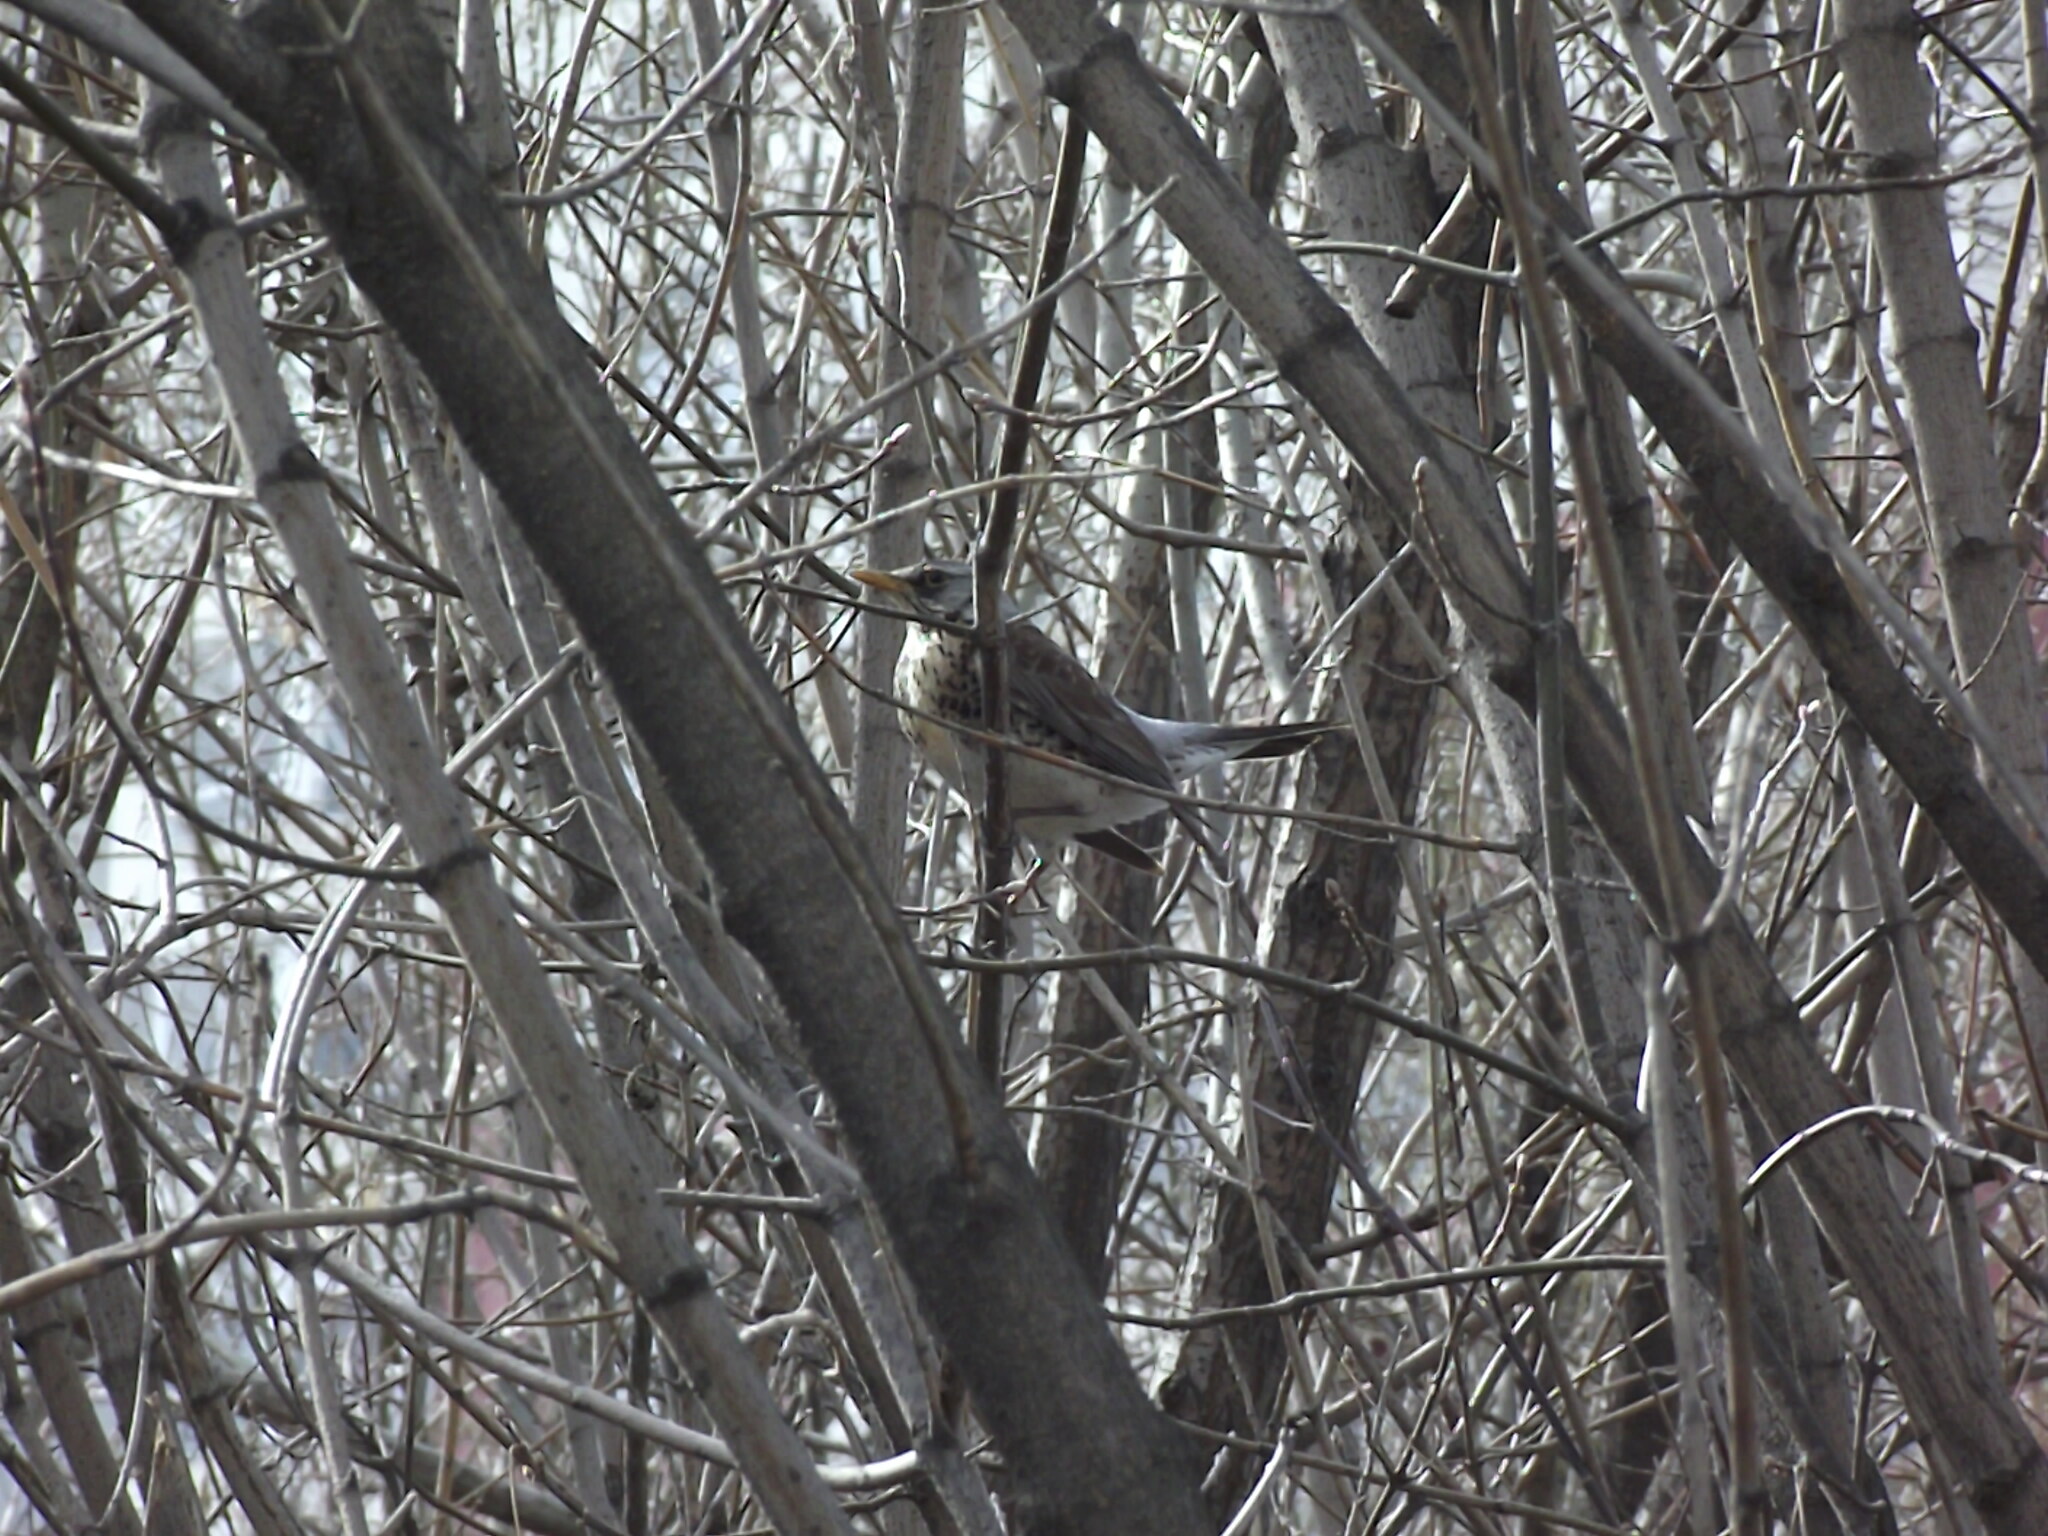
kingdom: Animalia
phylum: Chordata
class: Aves
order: Passeriformes
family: Turdidae
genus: Turdus
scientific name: Turdus pilaris
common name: Fieldfare
